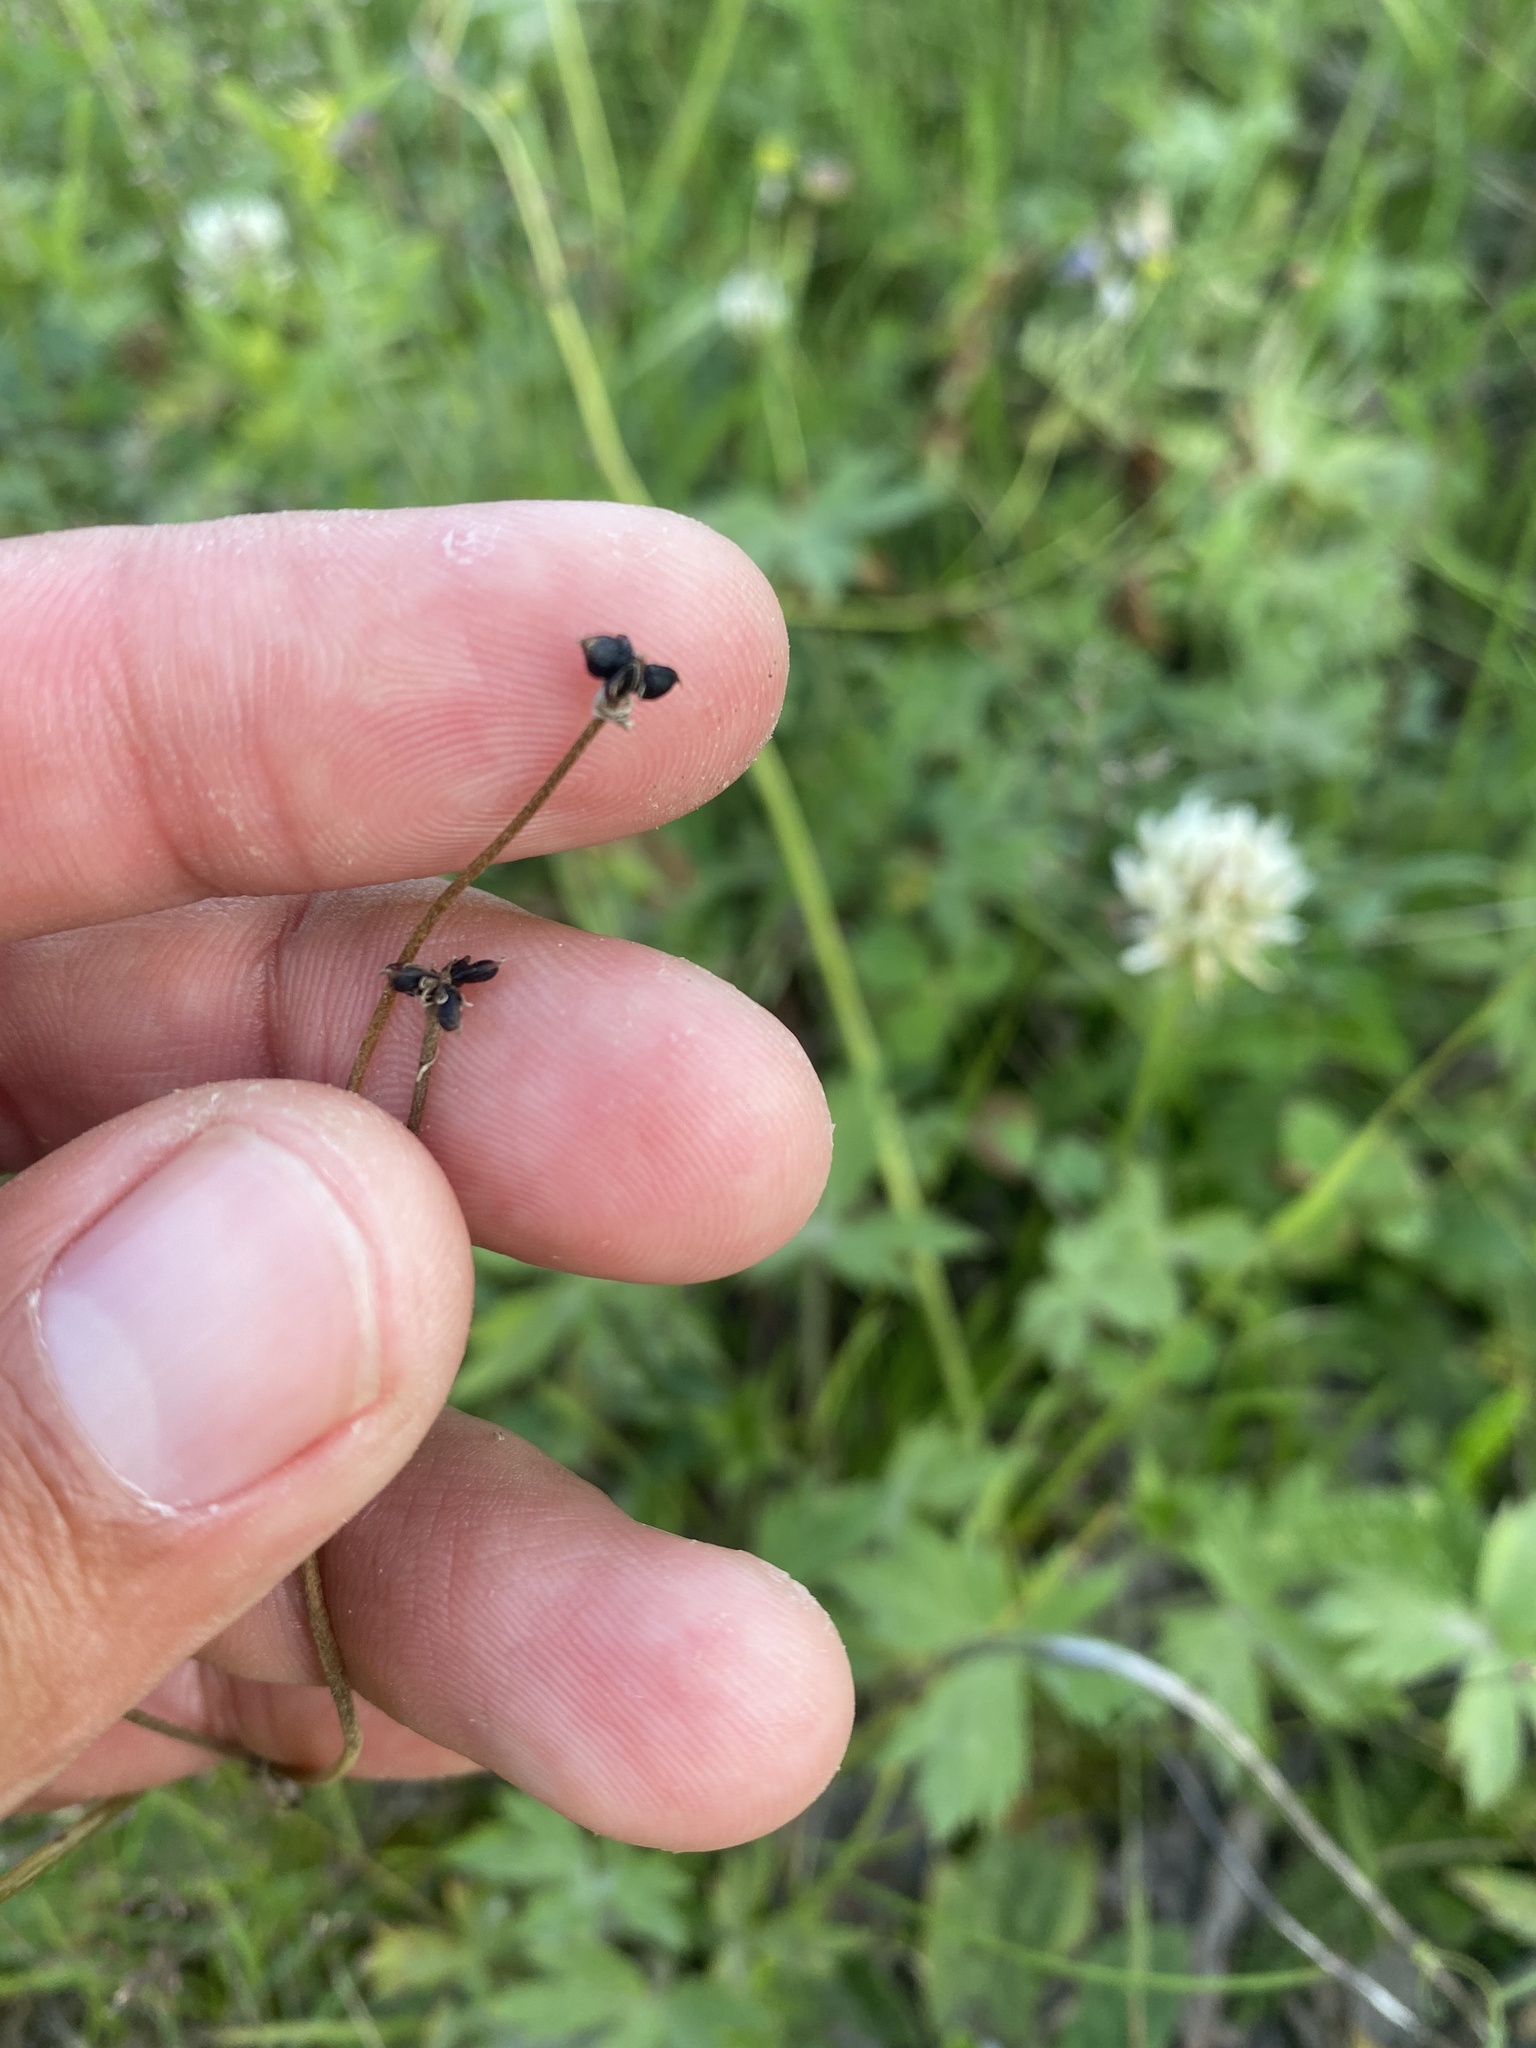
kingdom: Plantae
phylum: Tracheophyta
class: Magnoliopsida
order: Ranunculales
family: Ranunculaceae
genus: Ranunculus
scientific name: Ranunculus propinquus
